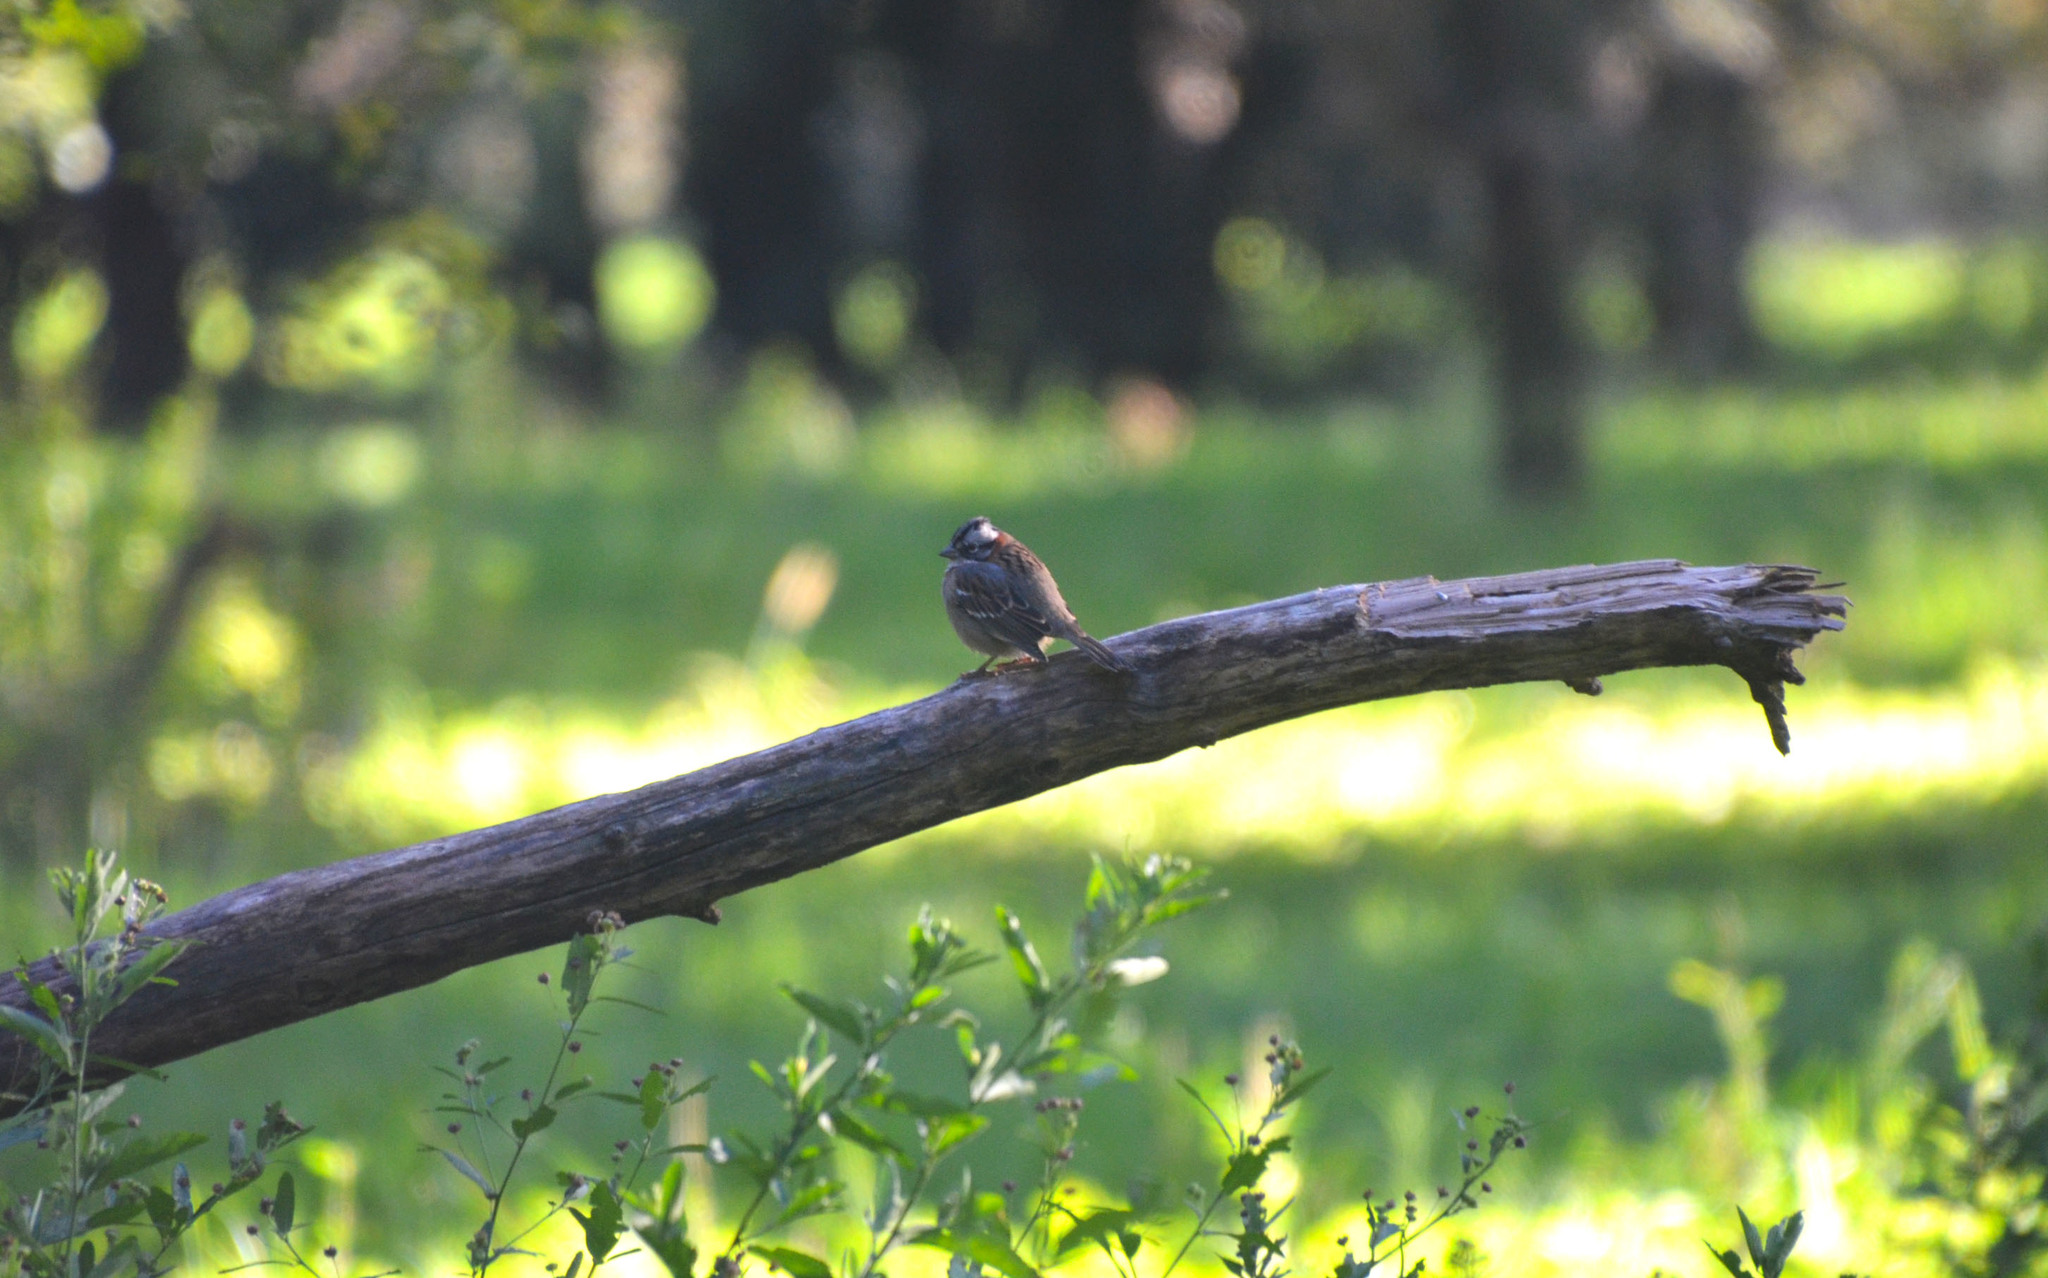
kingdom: Animalia
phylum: Chordata
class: Aves
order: Passeriformes
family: Passerellidae
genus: Zonotrichia
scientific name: Zonotrichia capensis
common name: Rufous-collared sparrow
